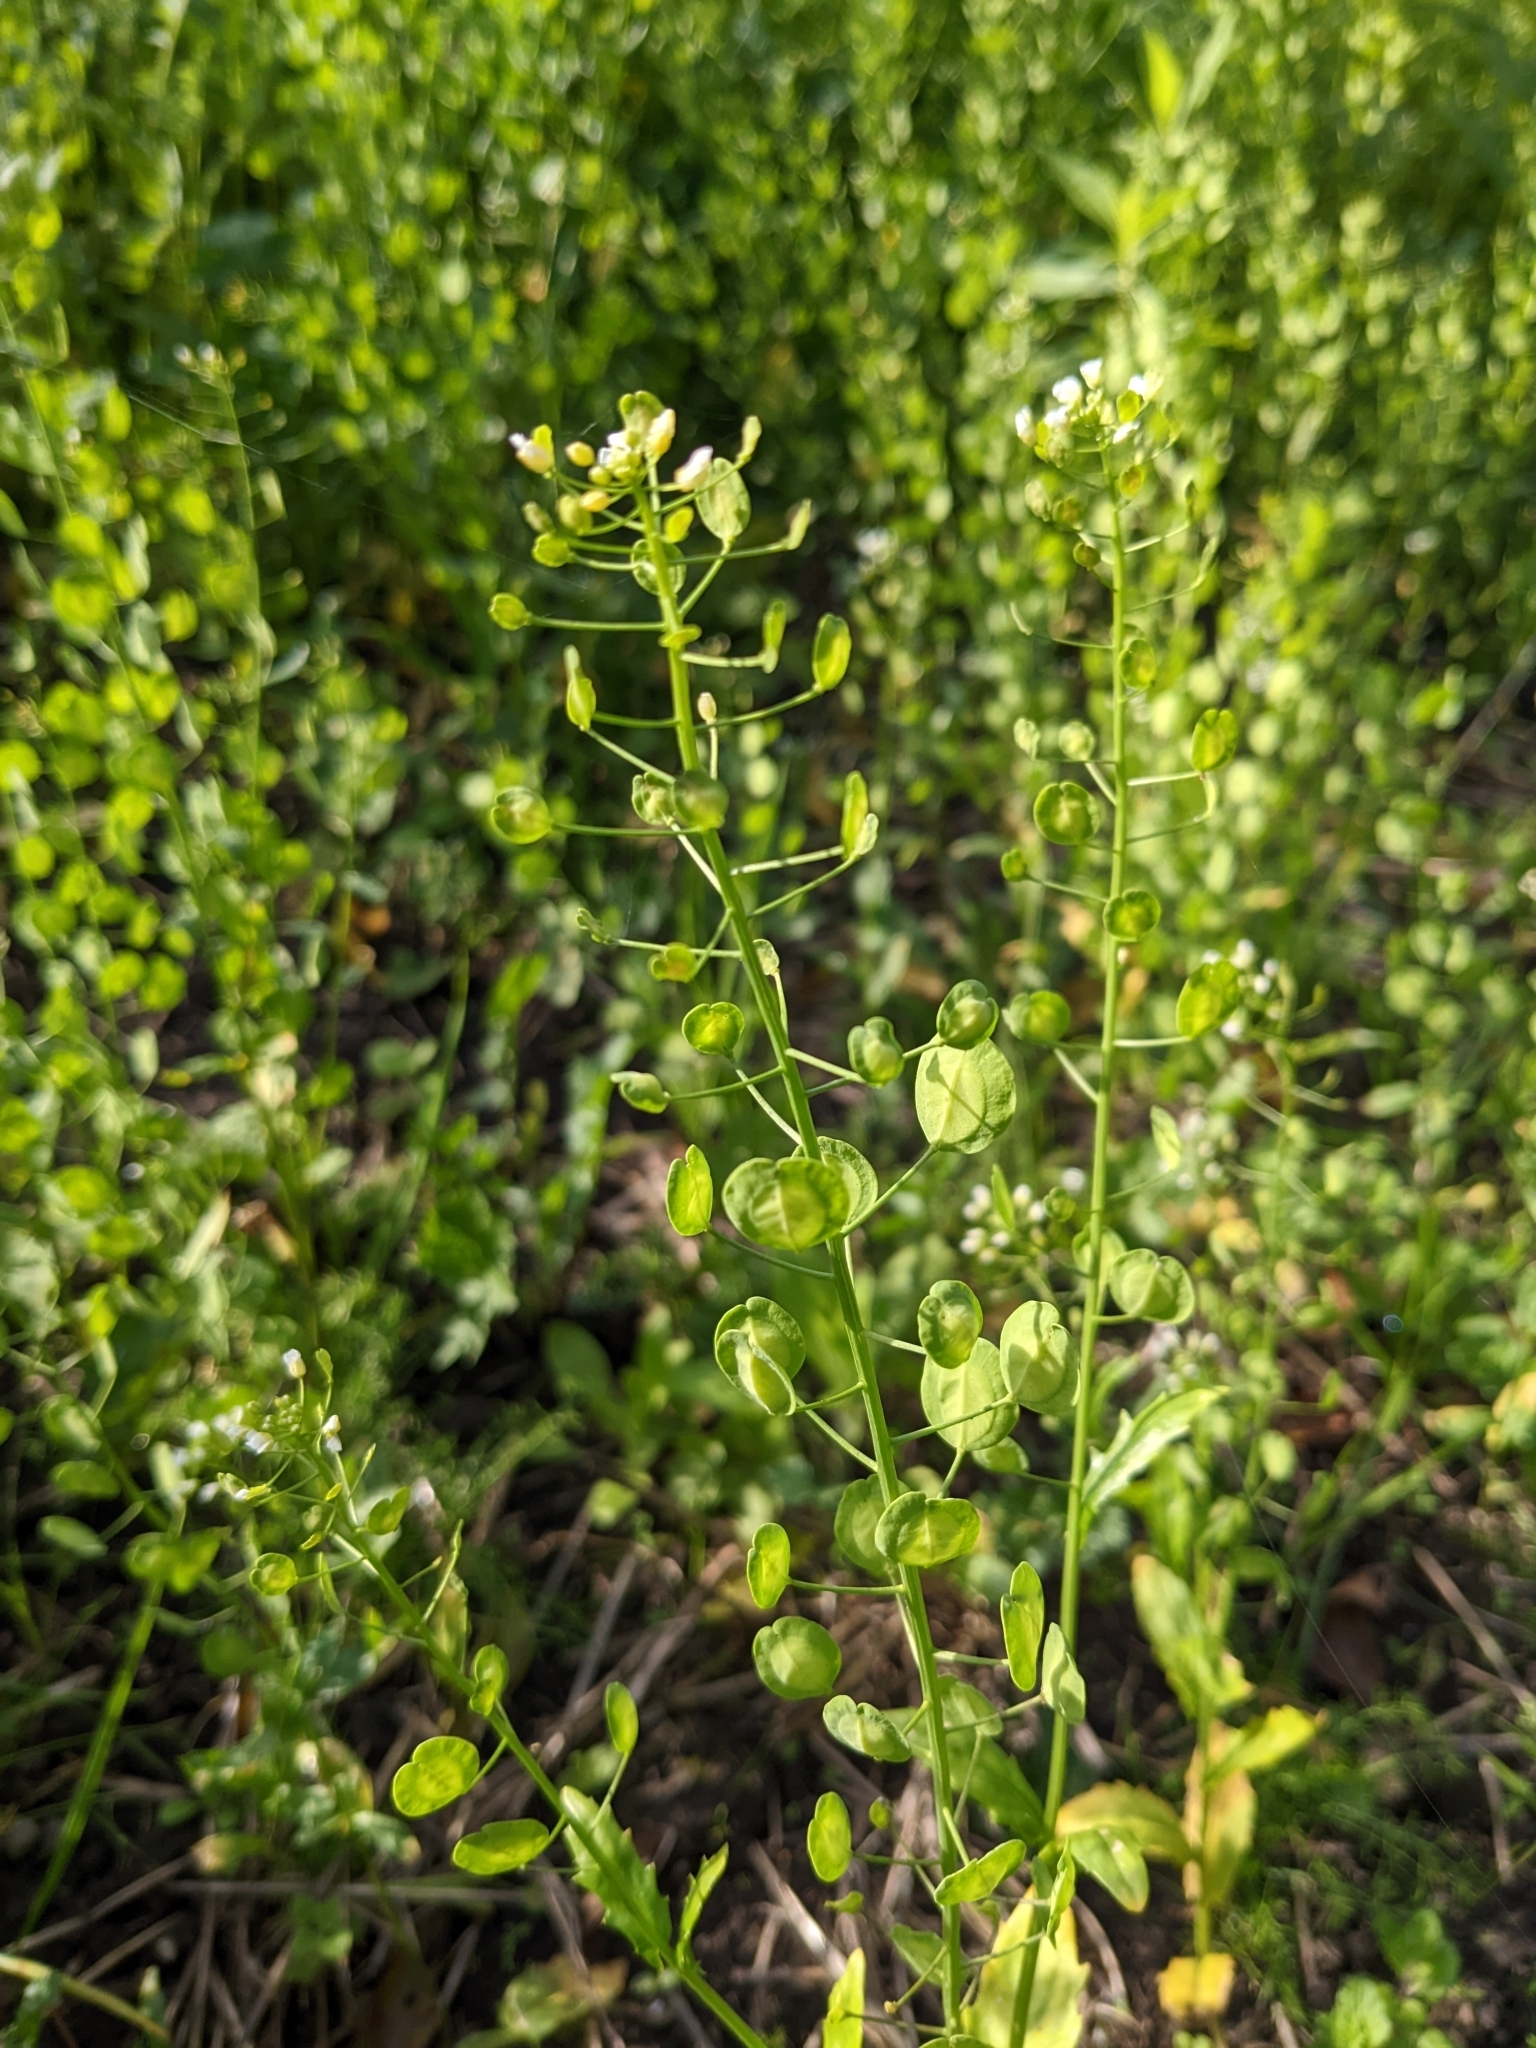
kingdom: Plantae
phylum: Tracheophyta
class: Magnoliopsida
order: Brassicales
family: Brassicaceae
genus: Thlaspi
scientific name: Thlaspi arvense
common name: Field pennycress
